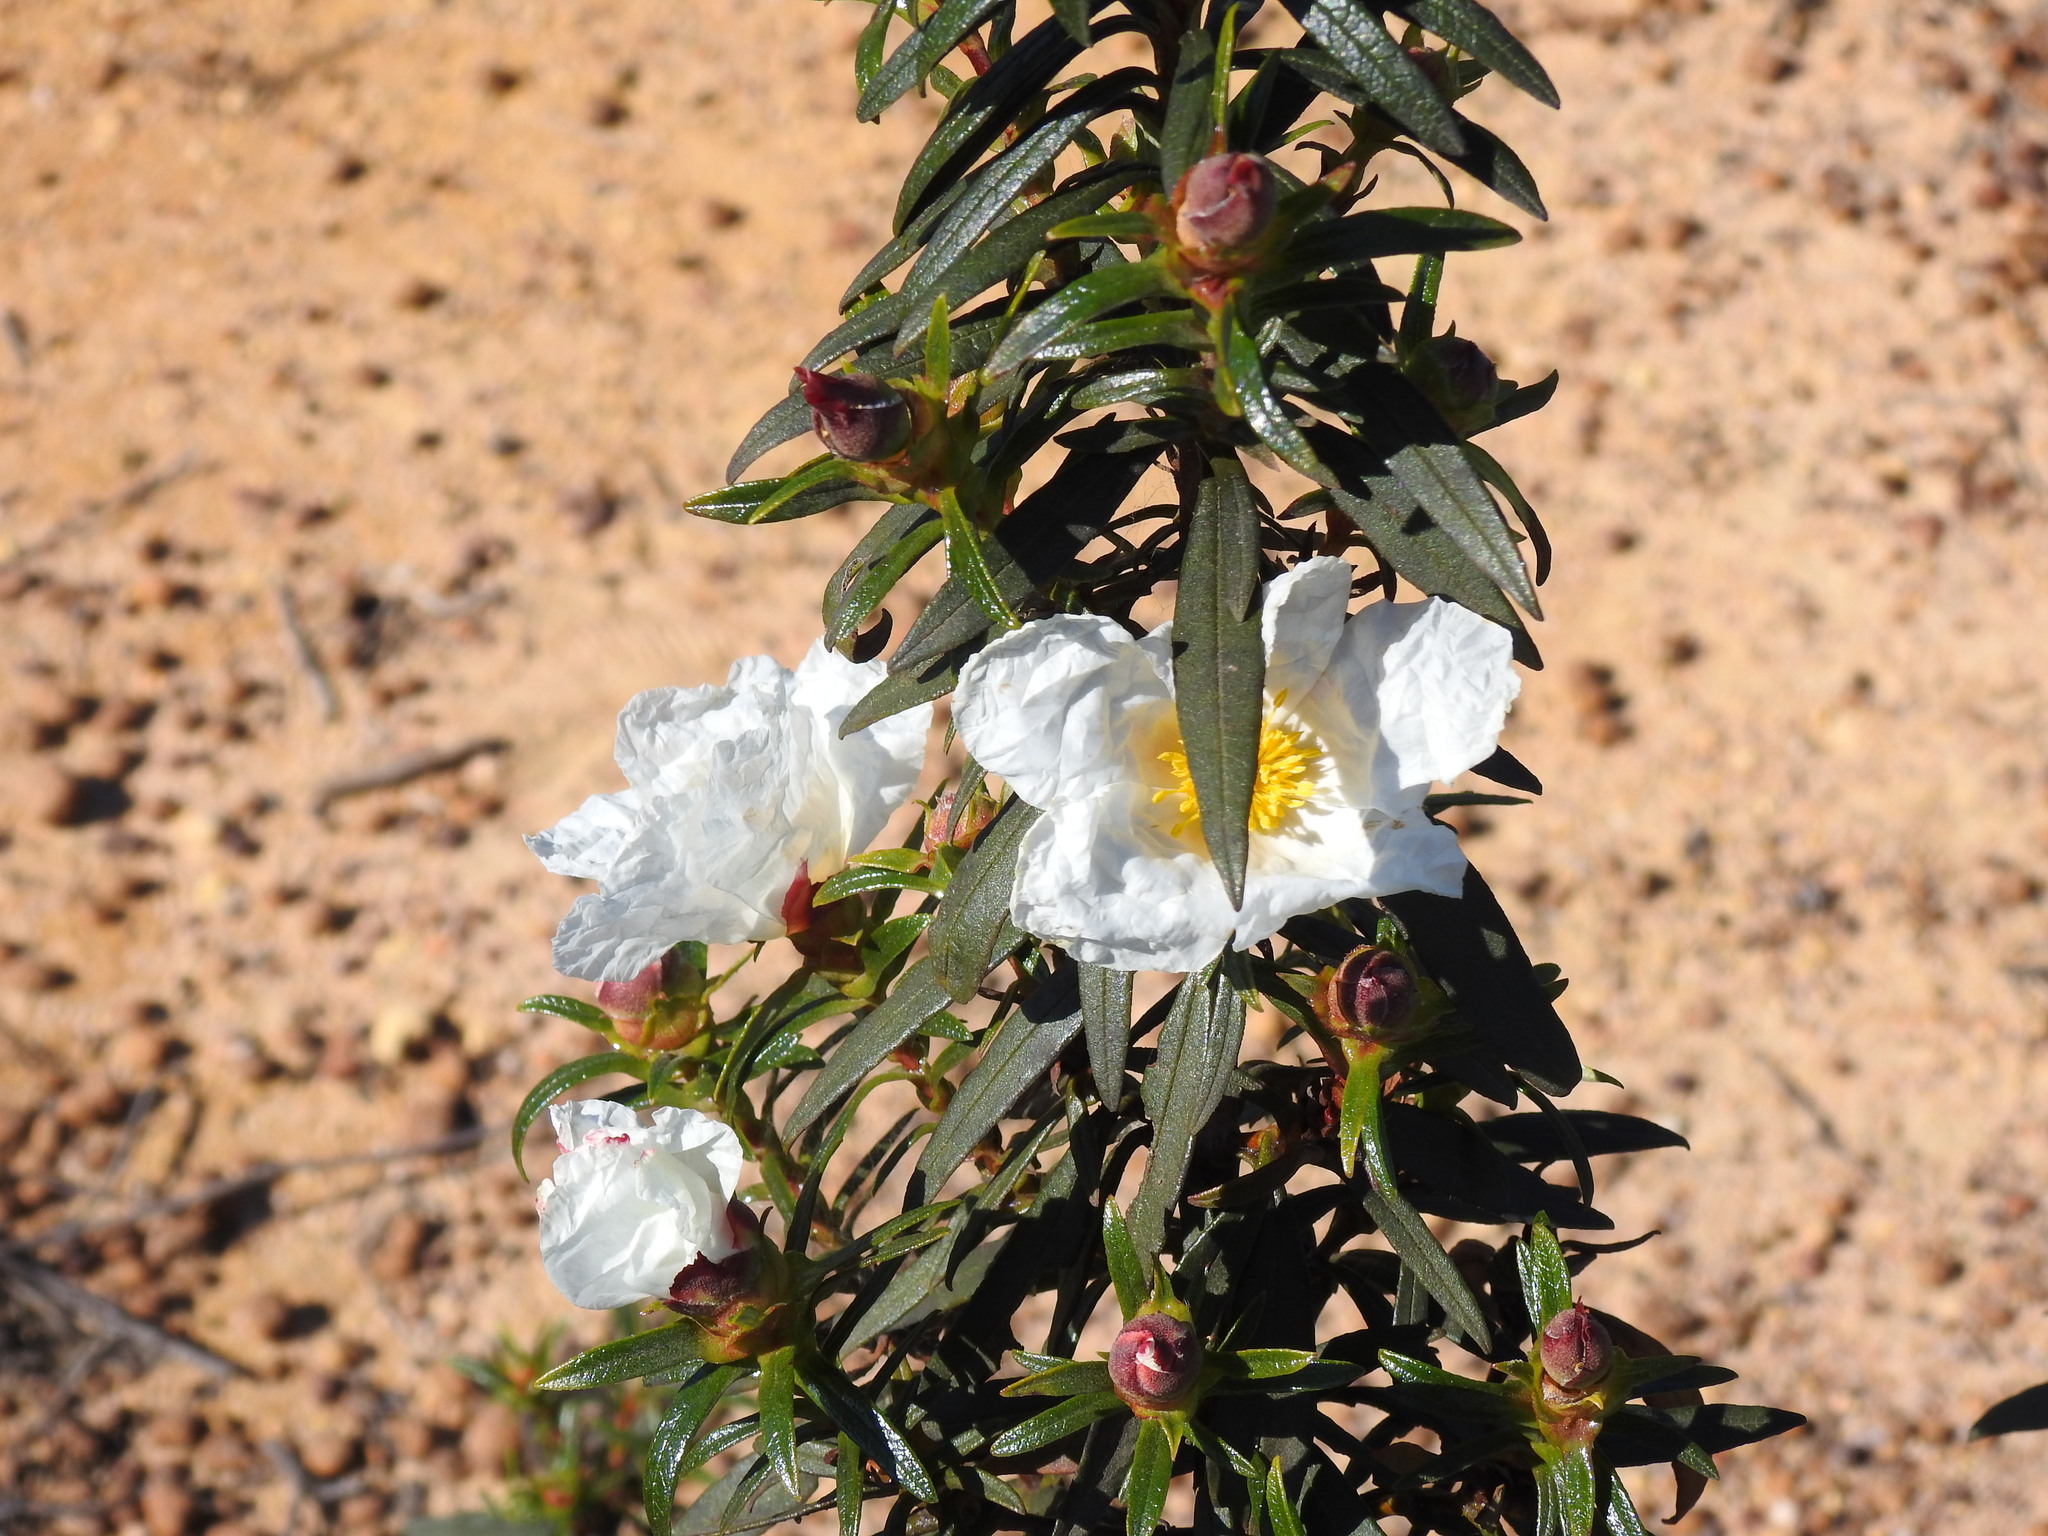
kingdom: Plantae
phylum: Tracheophyta
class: Magnoliopsida
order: Malvales
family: Cistaceae
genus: Cistus
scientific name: Cistus ladanifer
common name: Common gum cistus
